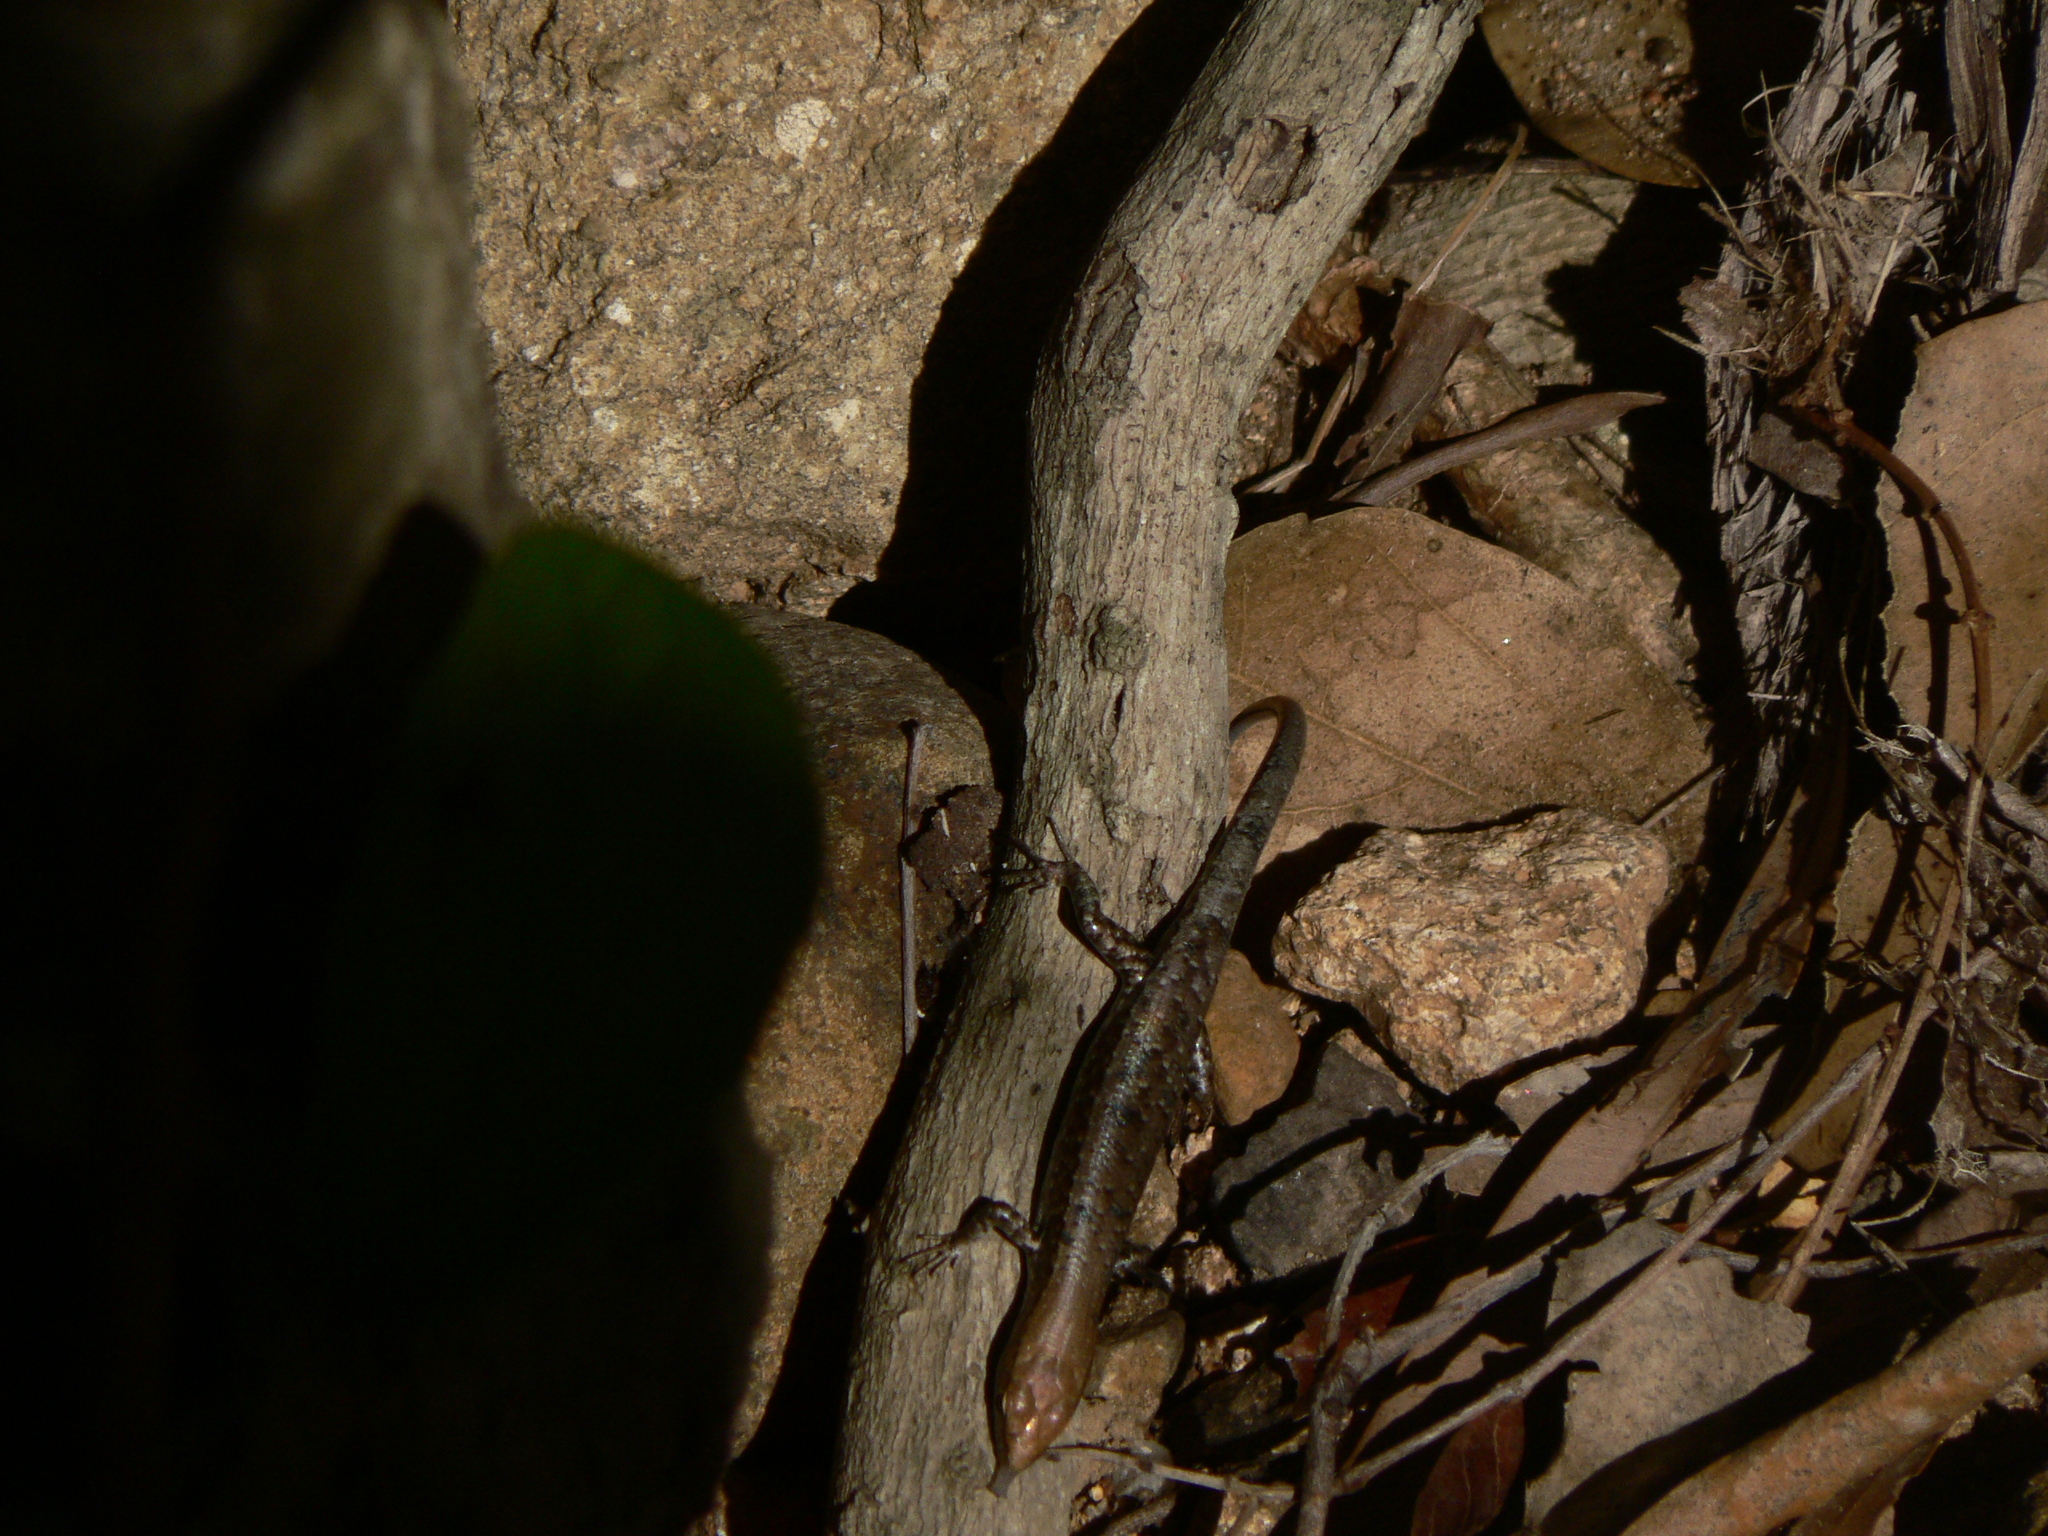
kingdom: Animalia
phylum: Chordata
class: Squamata
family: Scincidae
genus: Lampropholis
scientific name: Lampropholis mirabilis
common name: Saxicoline sunskink
